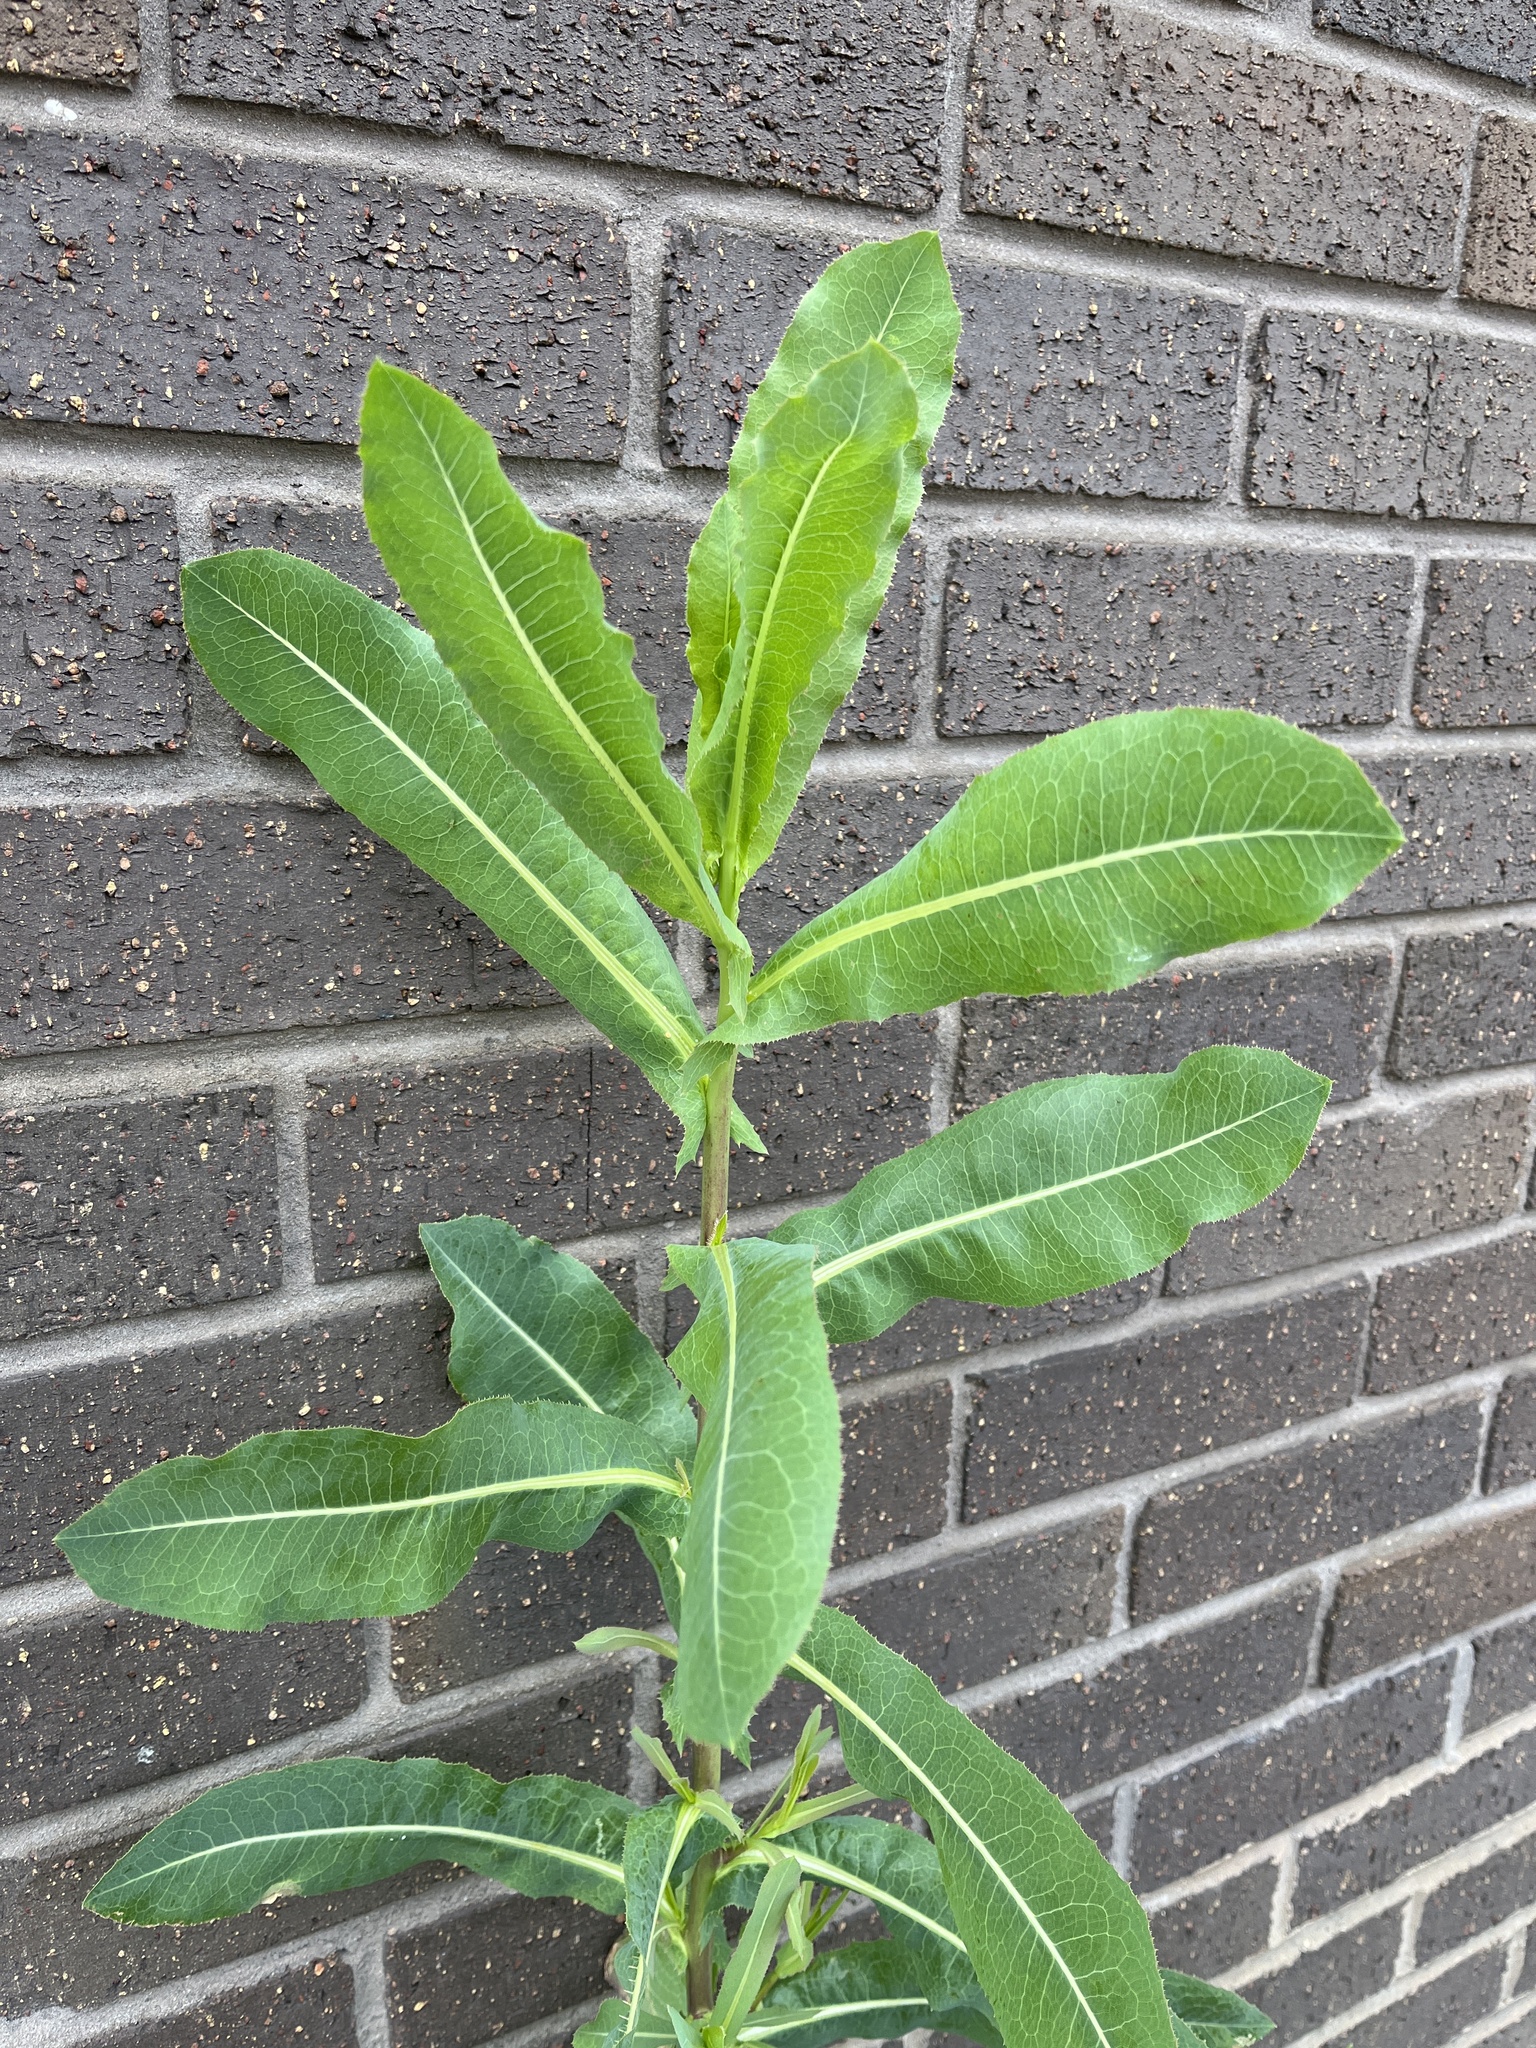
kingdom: Plantae
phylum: Tracheophyta
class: Magnoliopsida
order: Asterales
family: Asteraceae
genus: Lactuca
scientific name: Lactuca serriola
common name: Prickly lettuce
